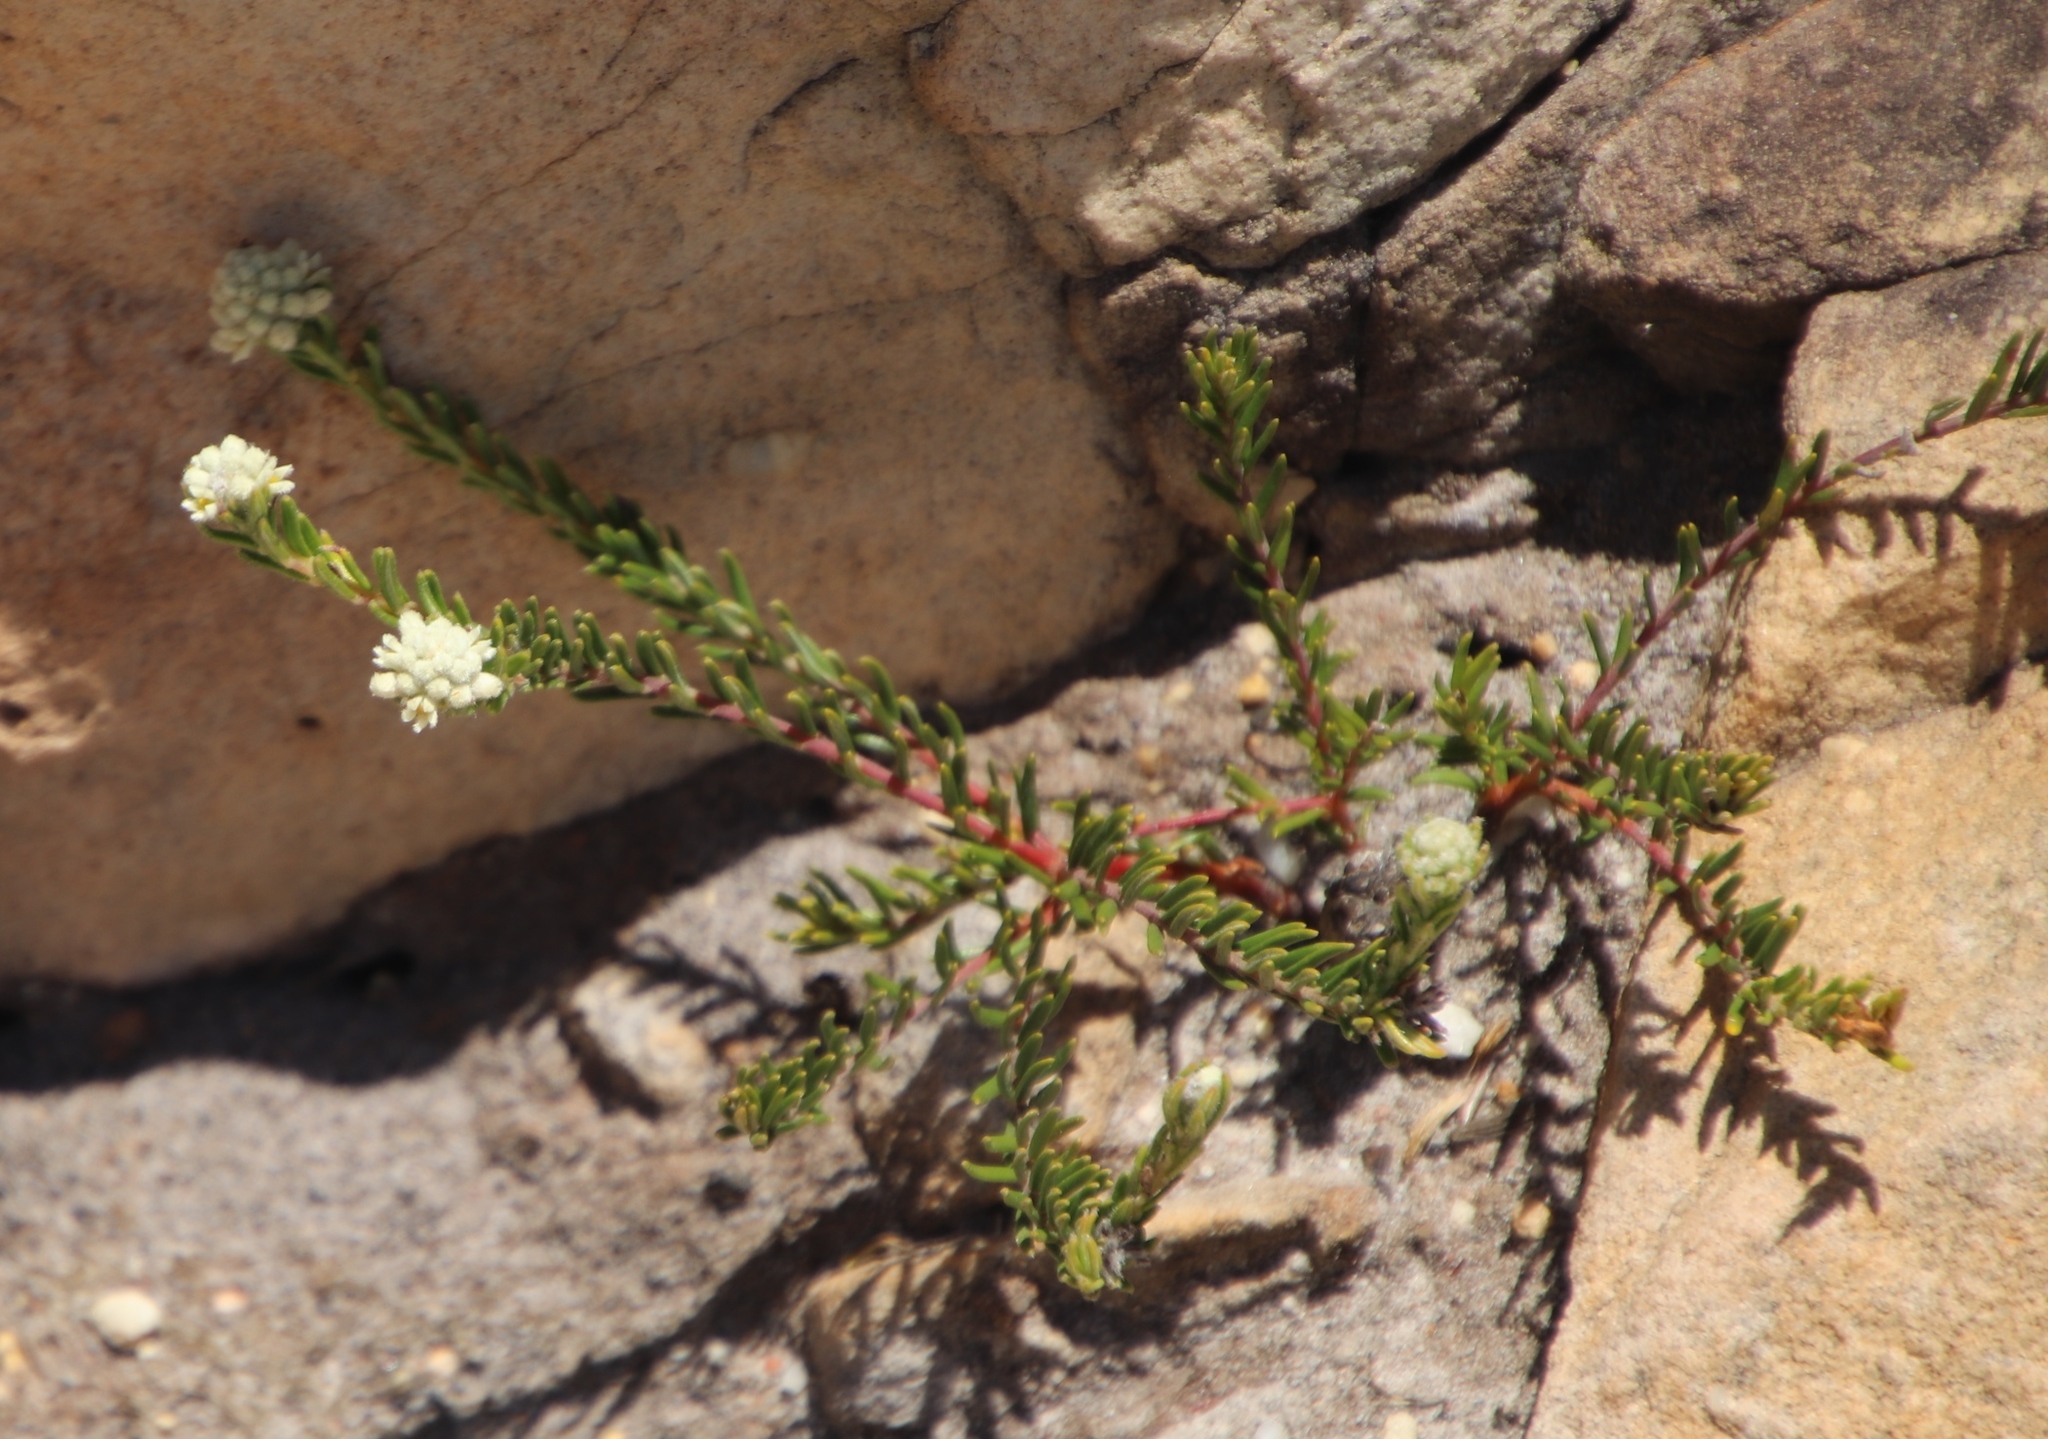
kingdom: Plantae
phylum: Tracheophyta
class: Magnoliopsida
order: Rosales
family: Rhamnaceae
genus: Phylica
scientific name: Phylica imberbis
